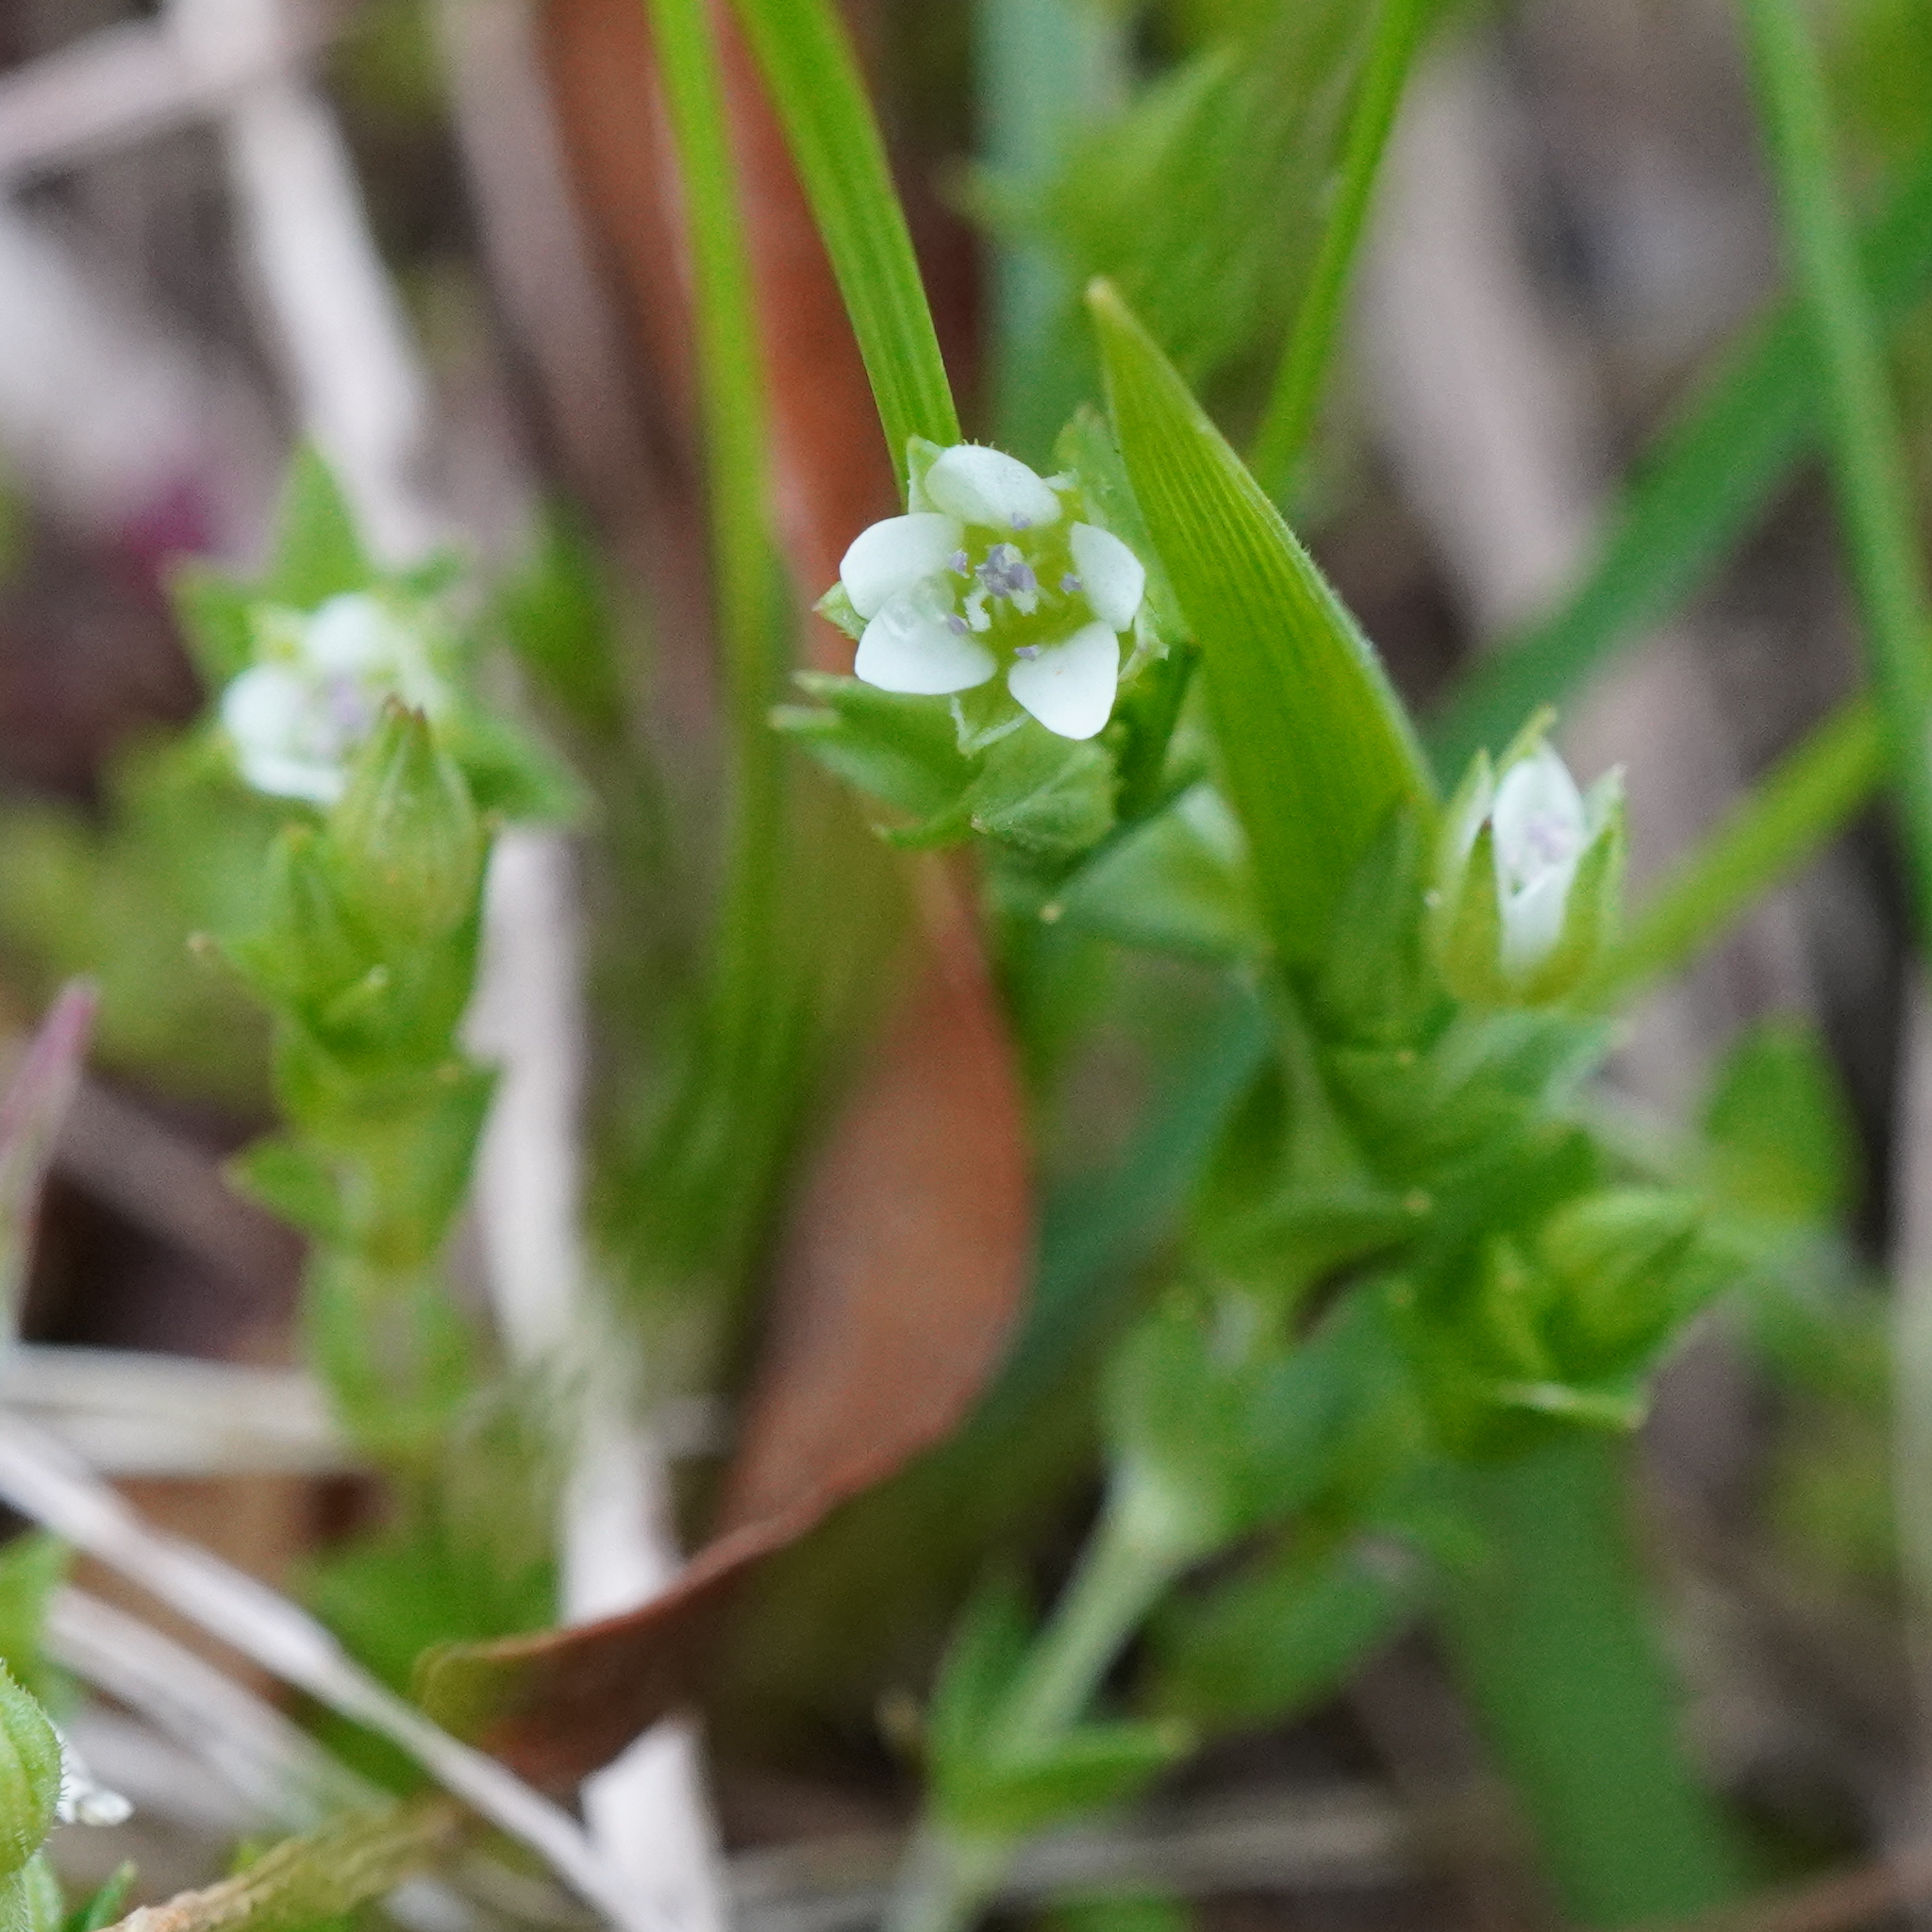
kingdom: Plantae
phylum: Tracheophyta
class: Magnoliopsida
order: Caryophyllales
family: Caryophyllaceae
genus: Arenaria
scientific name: Arenaria serpyllifolia
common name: Thyme-leaved sandwort
